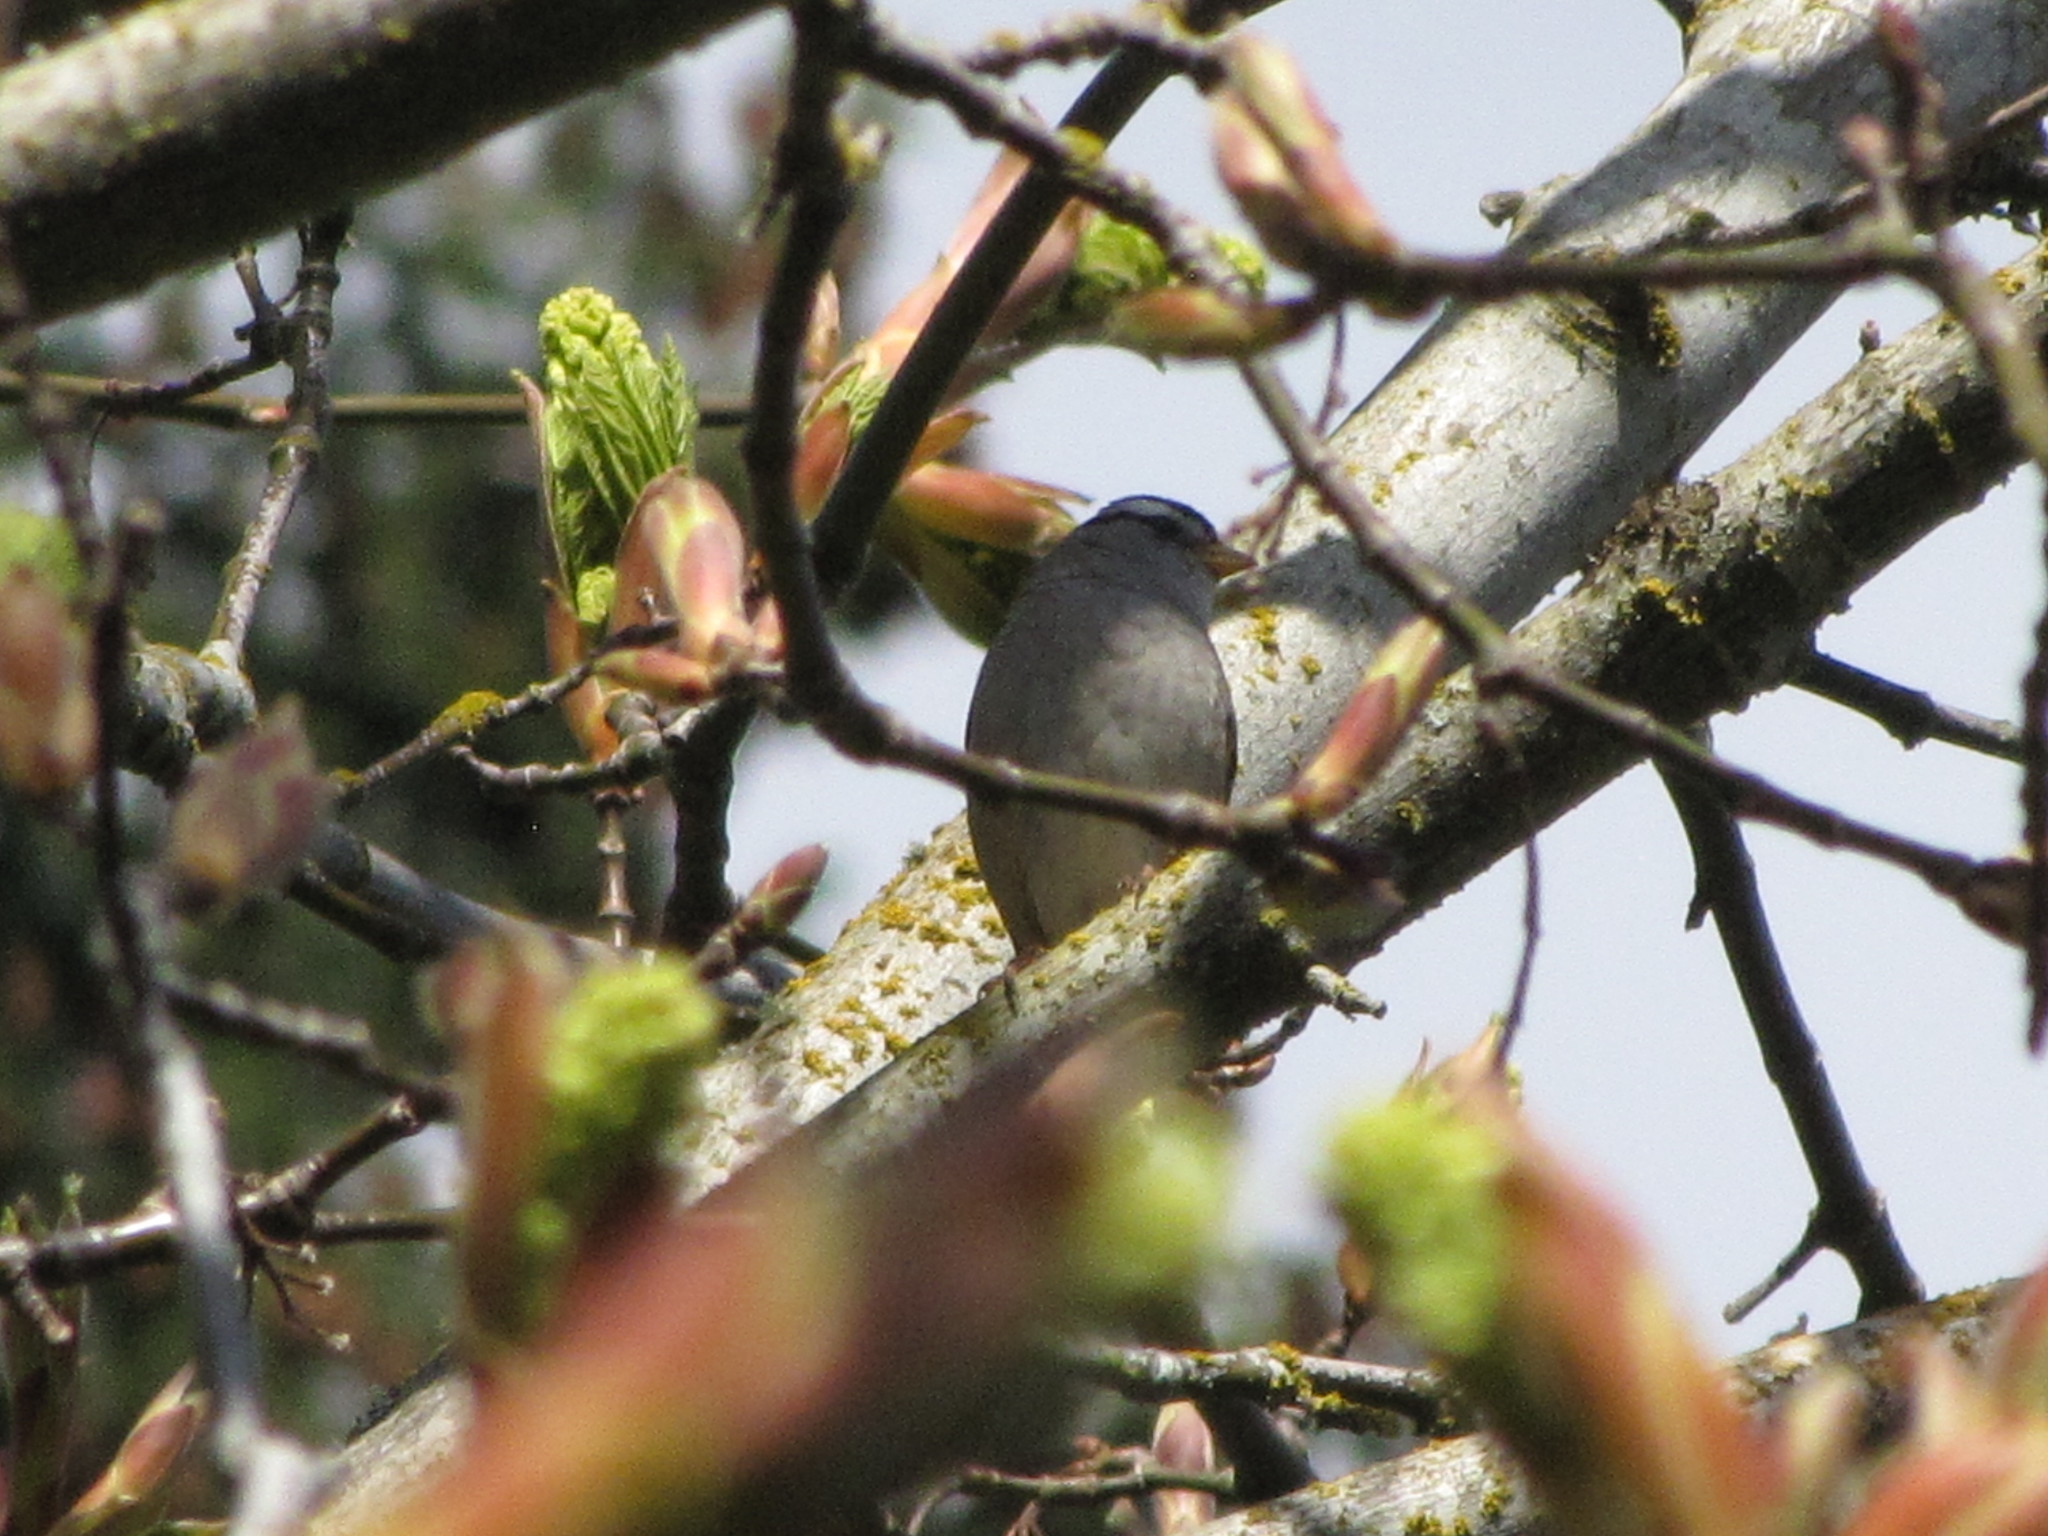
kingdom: Animalia
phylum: Chordata
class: Aves
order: Passeriformes
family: Passerellidae
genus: Zonotrichia
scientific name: Zonotrichia leucophrys
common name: White-crowned sparrow
